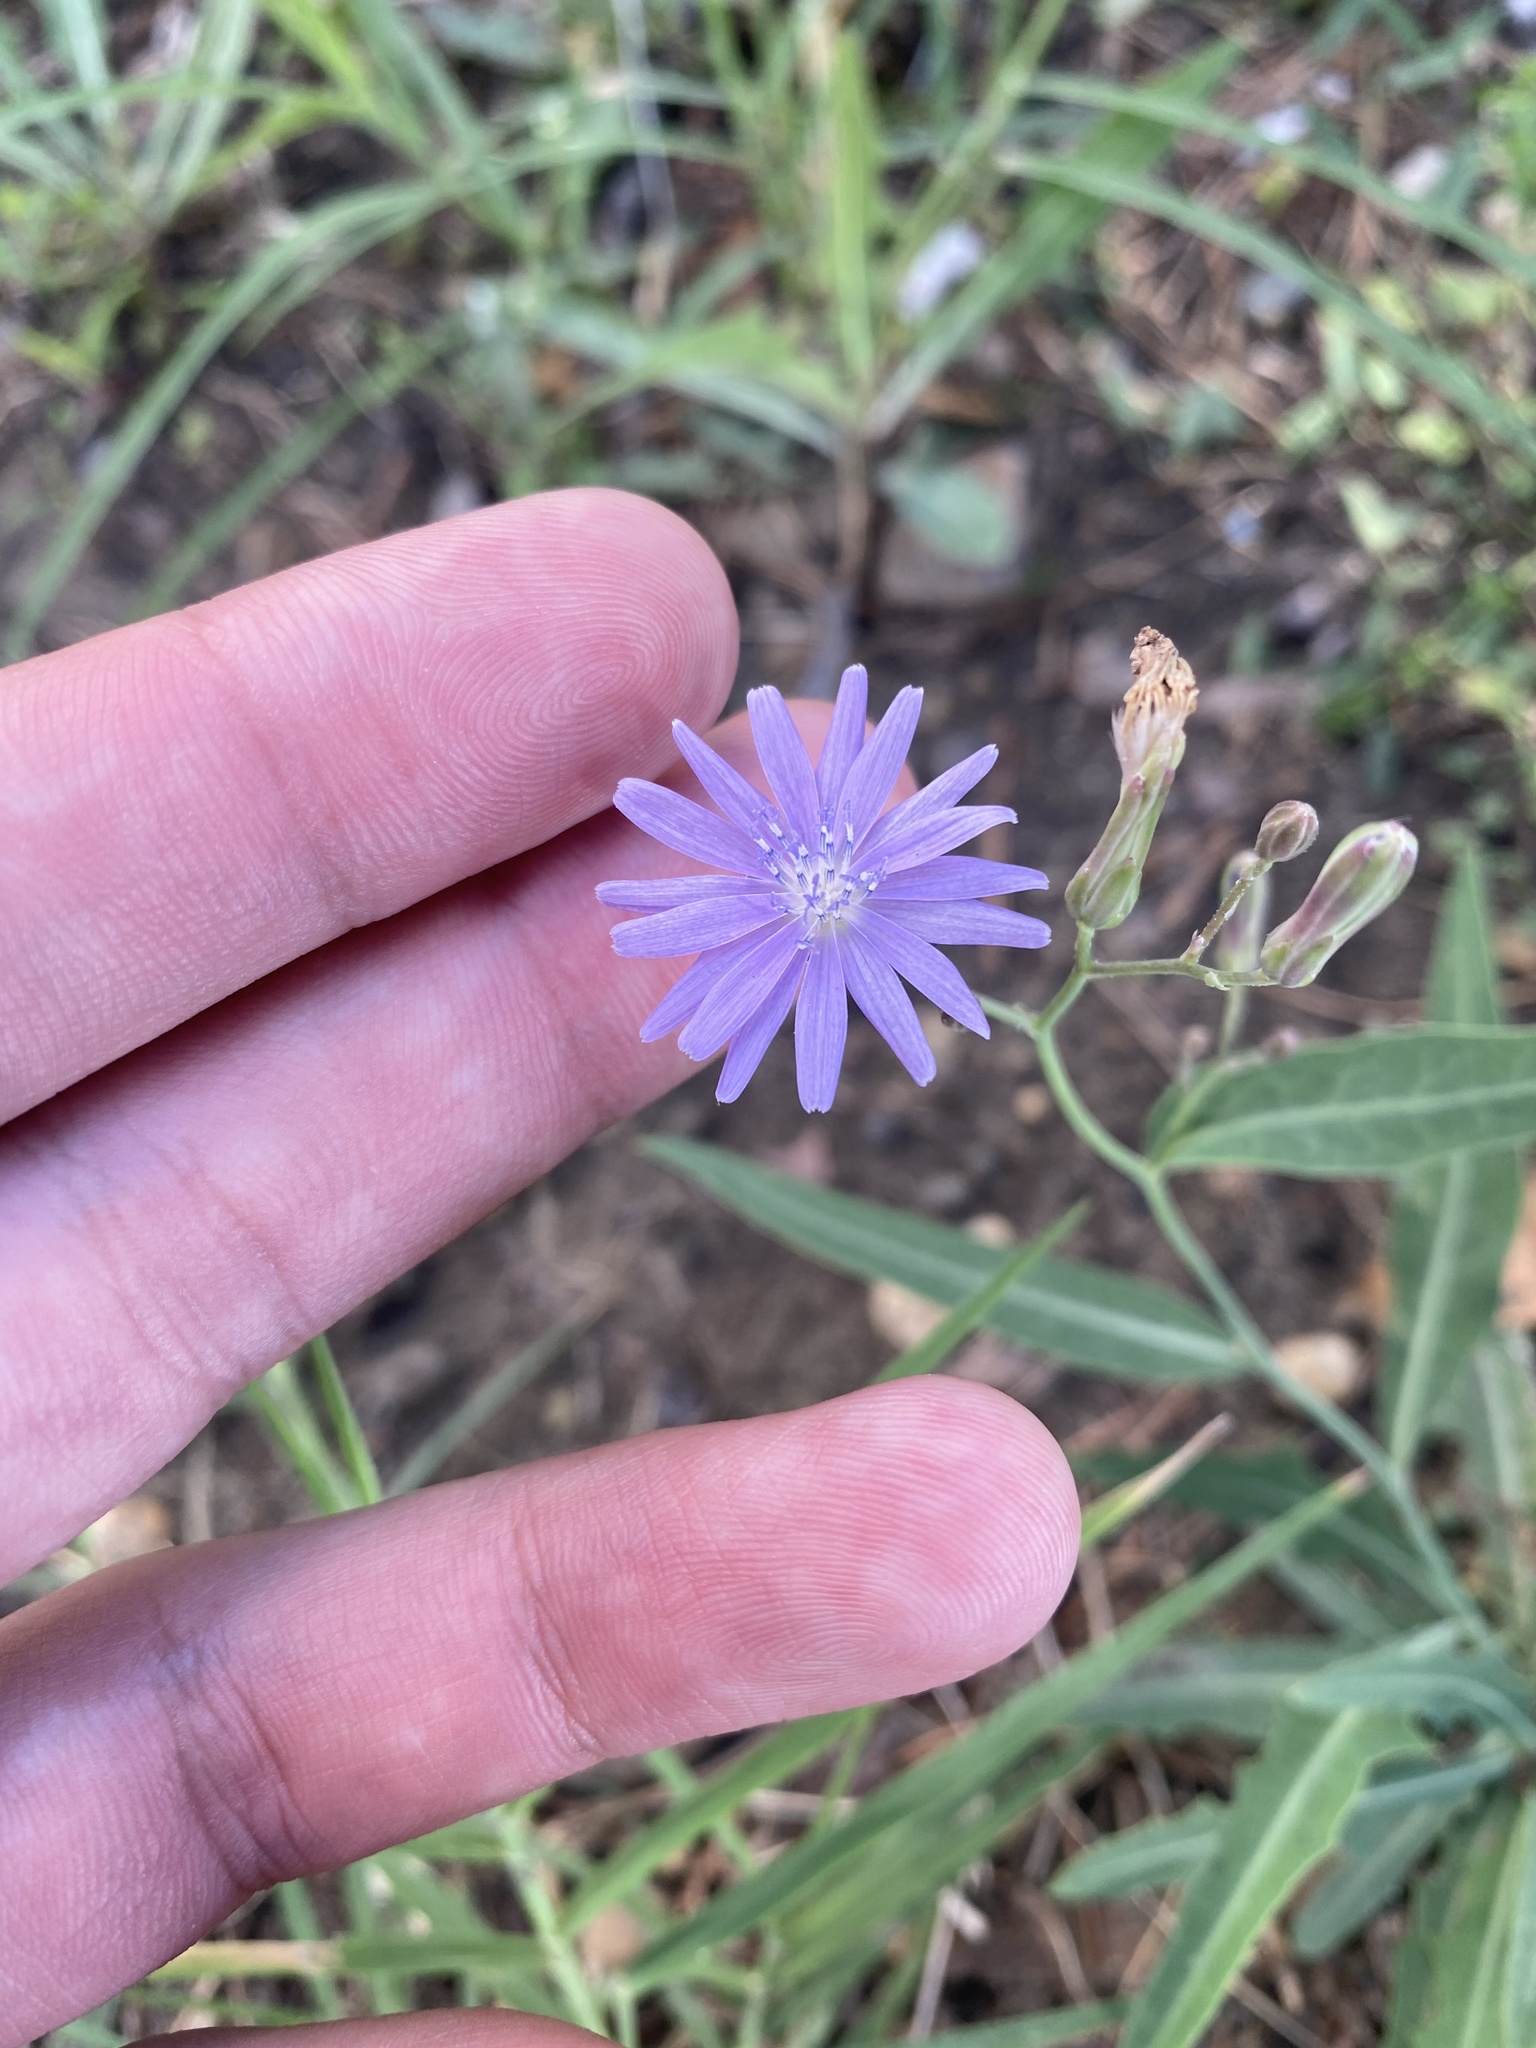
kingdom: Plantae
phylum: Tracheophyta
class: Magnoliopsida
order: Asterales
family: Asteraceae
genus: Lactuca
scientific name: Lactuca tatarica
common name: Blue lettuce
